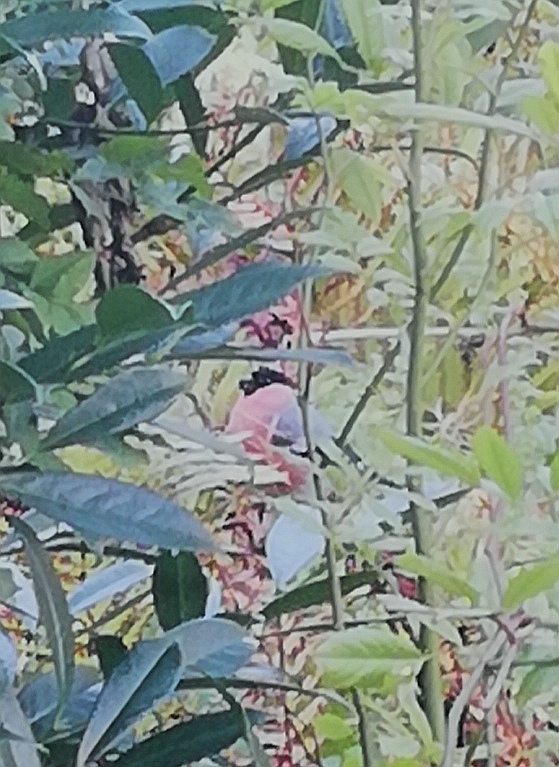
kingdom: Animalia
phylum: Chordata
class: Aves
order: Passeriformes
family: Fringillidae
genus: Pyrrhula
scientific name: Pyrrhula pyrrhula
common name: Eurasian bullfinch
